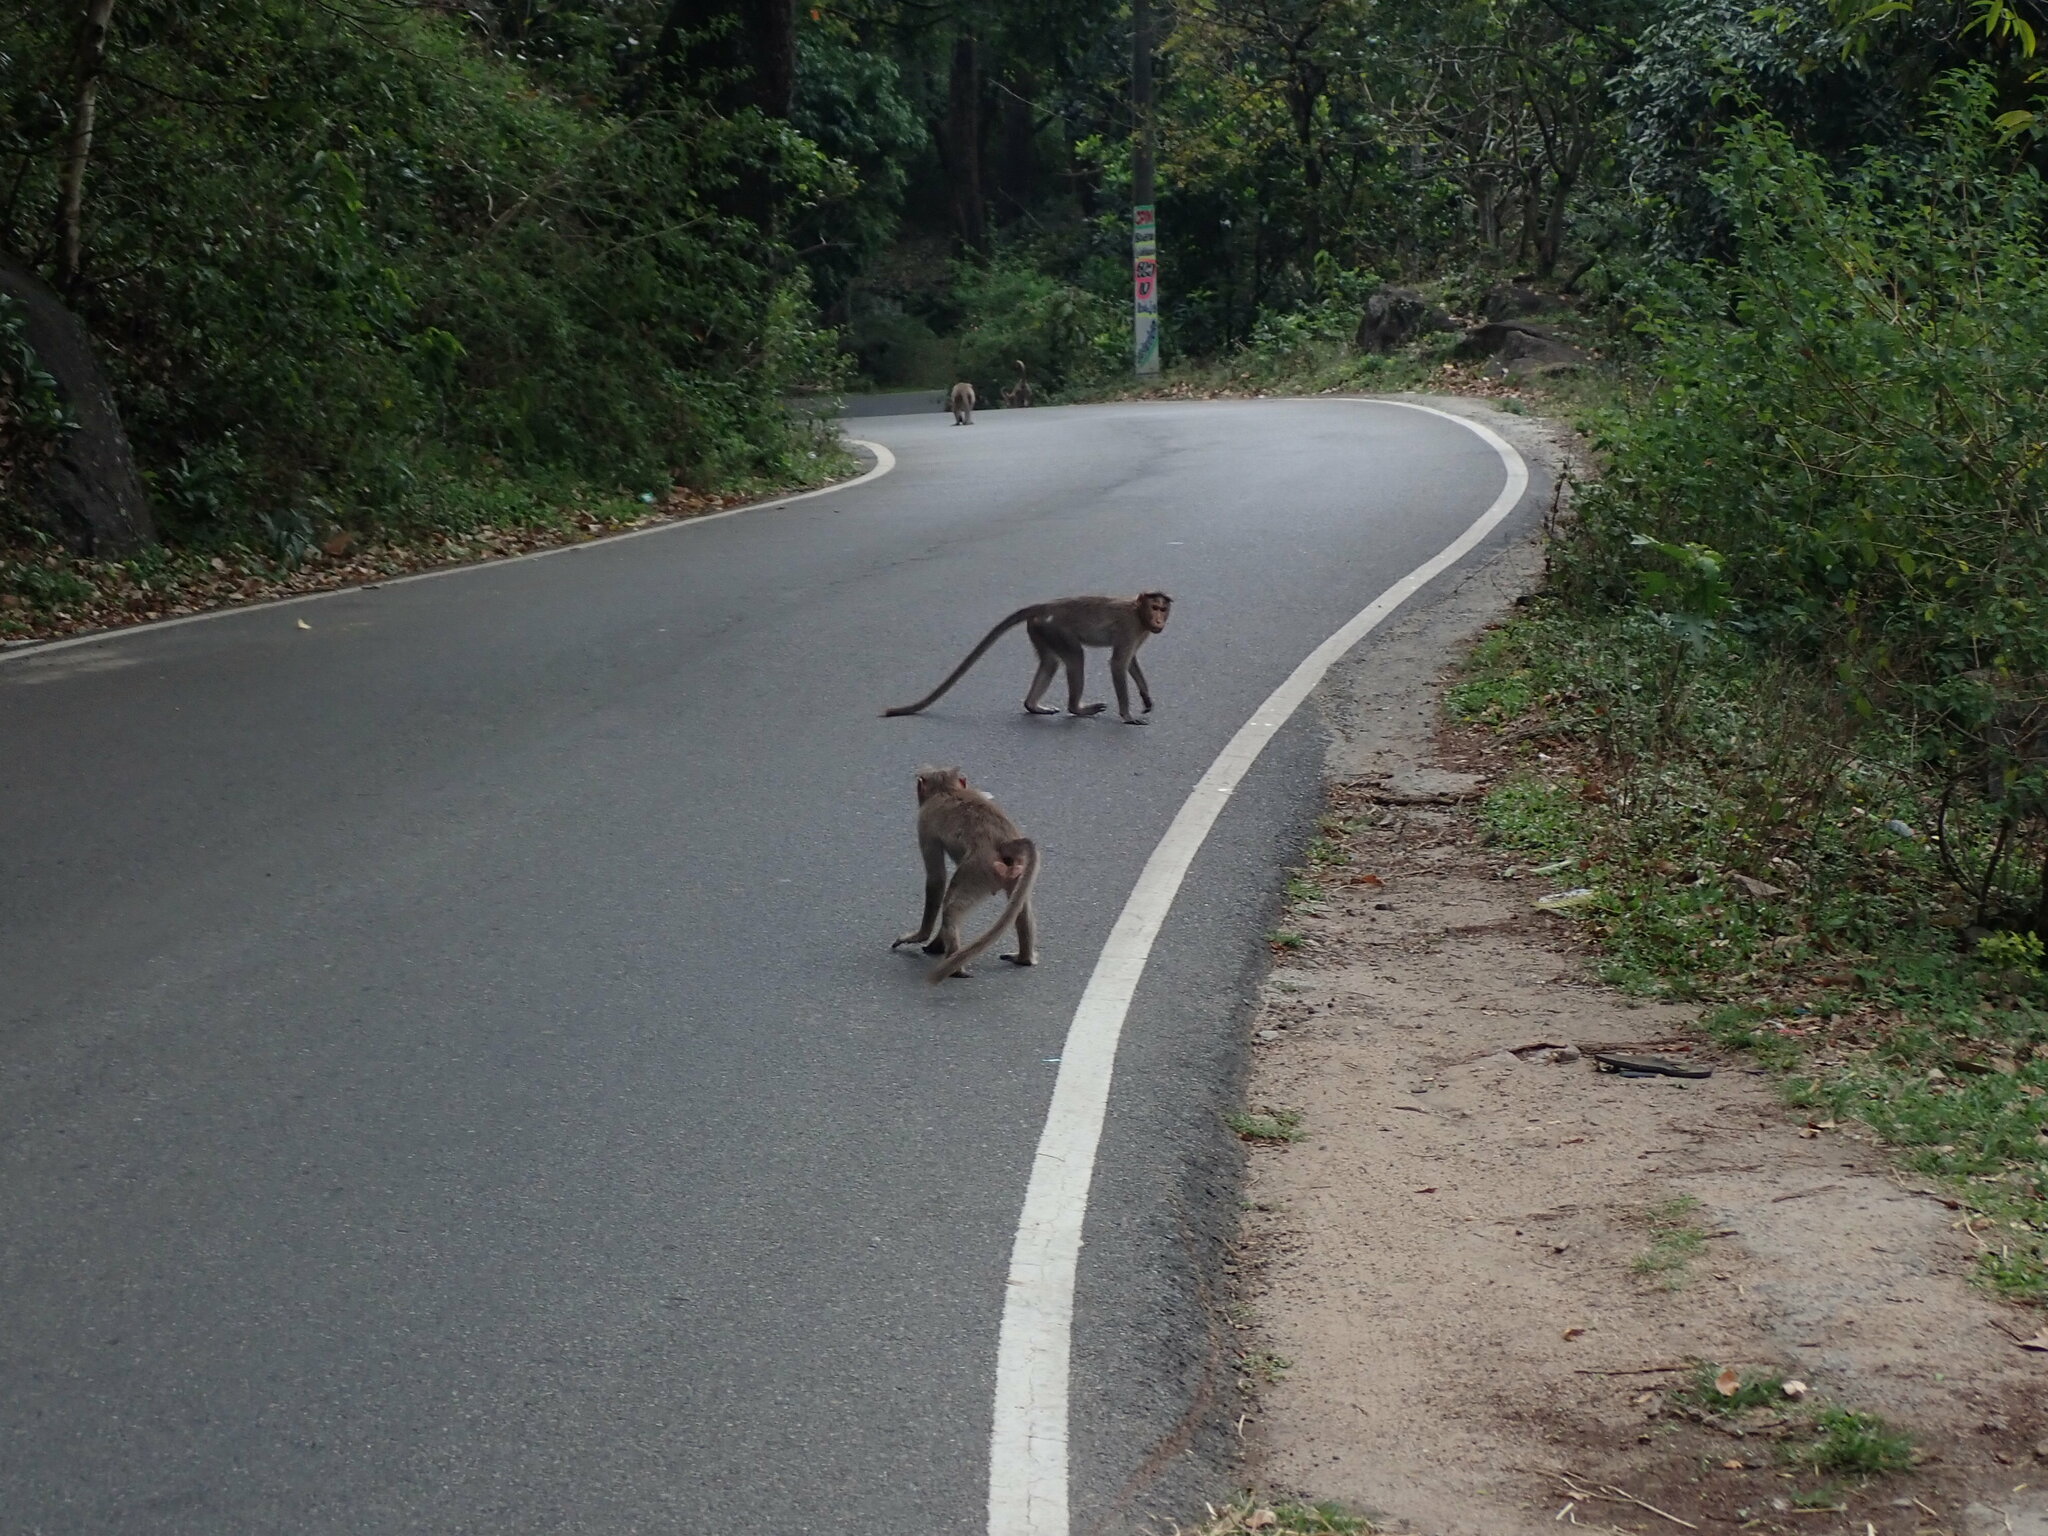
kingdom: Animalia
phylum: Chordata
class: Mammalia
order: Primates
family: Cercopithecidae
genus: Macaca
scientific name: Macaca radiata
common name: Bonnet macaque
